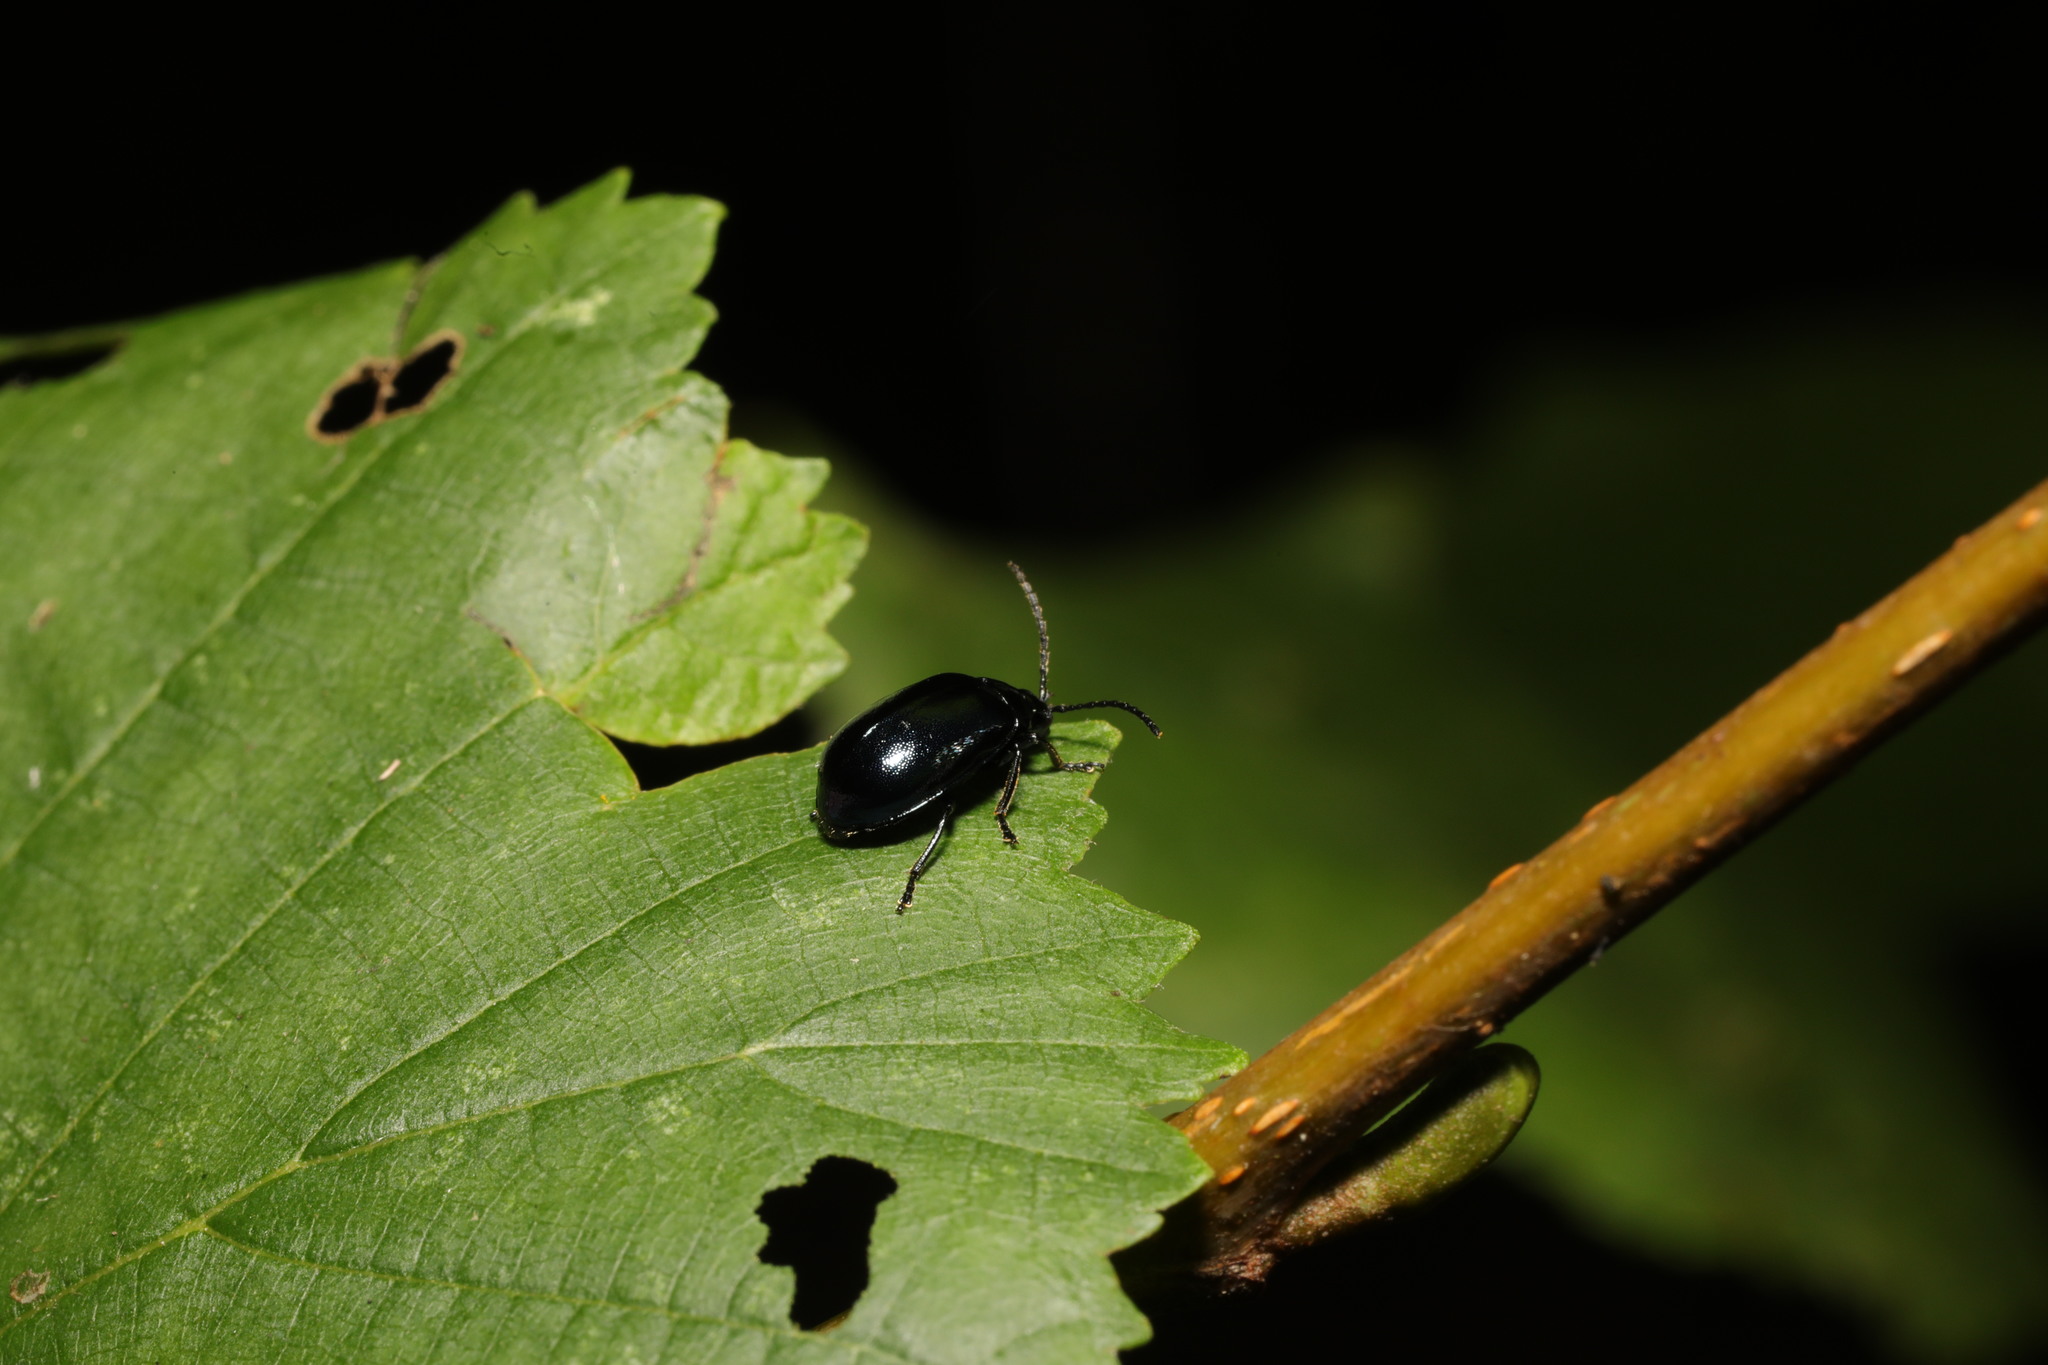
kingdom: Animalia
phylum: Arthropoda
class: Insecta
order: Coleoptera
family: Chrysomelidae
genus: Agelastica
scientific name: Agelastica alni
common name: Alder leaf beetle
